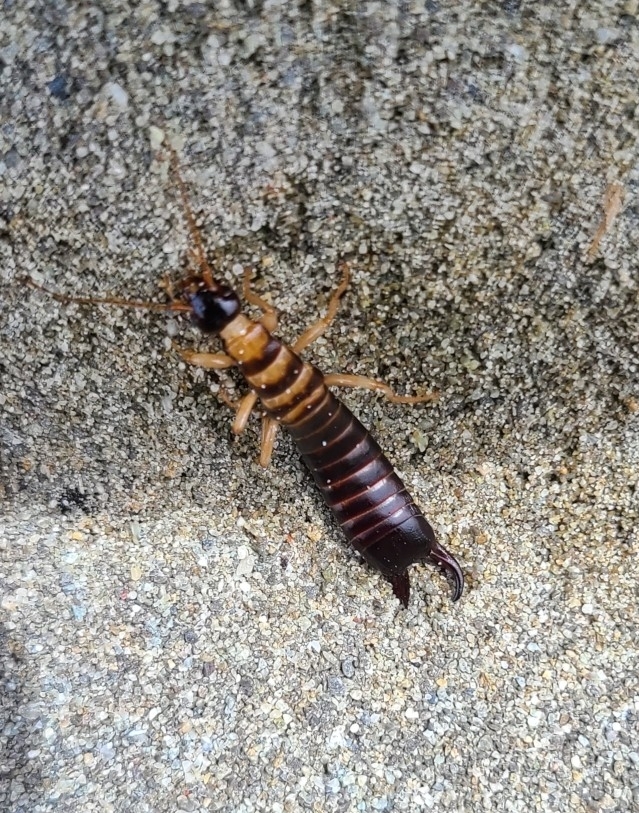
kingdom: Animalia
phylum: Arthropoda
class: Insecta
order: Dermaptera
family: Anisolabididae
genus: Anisolabis
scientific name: Anisolabis littorea
